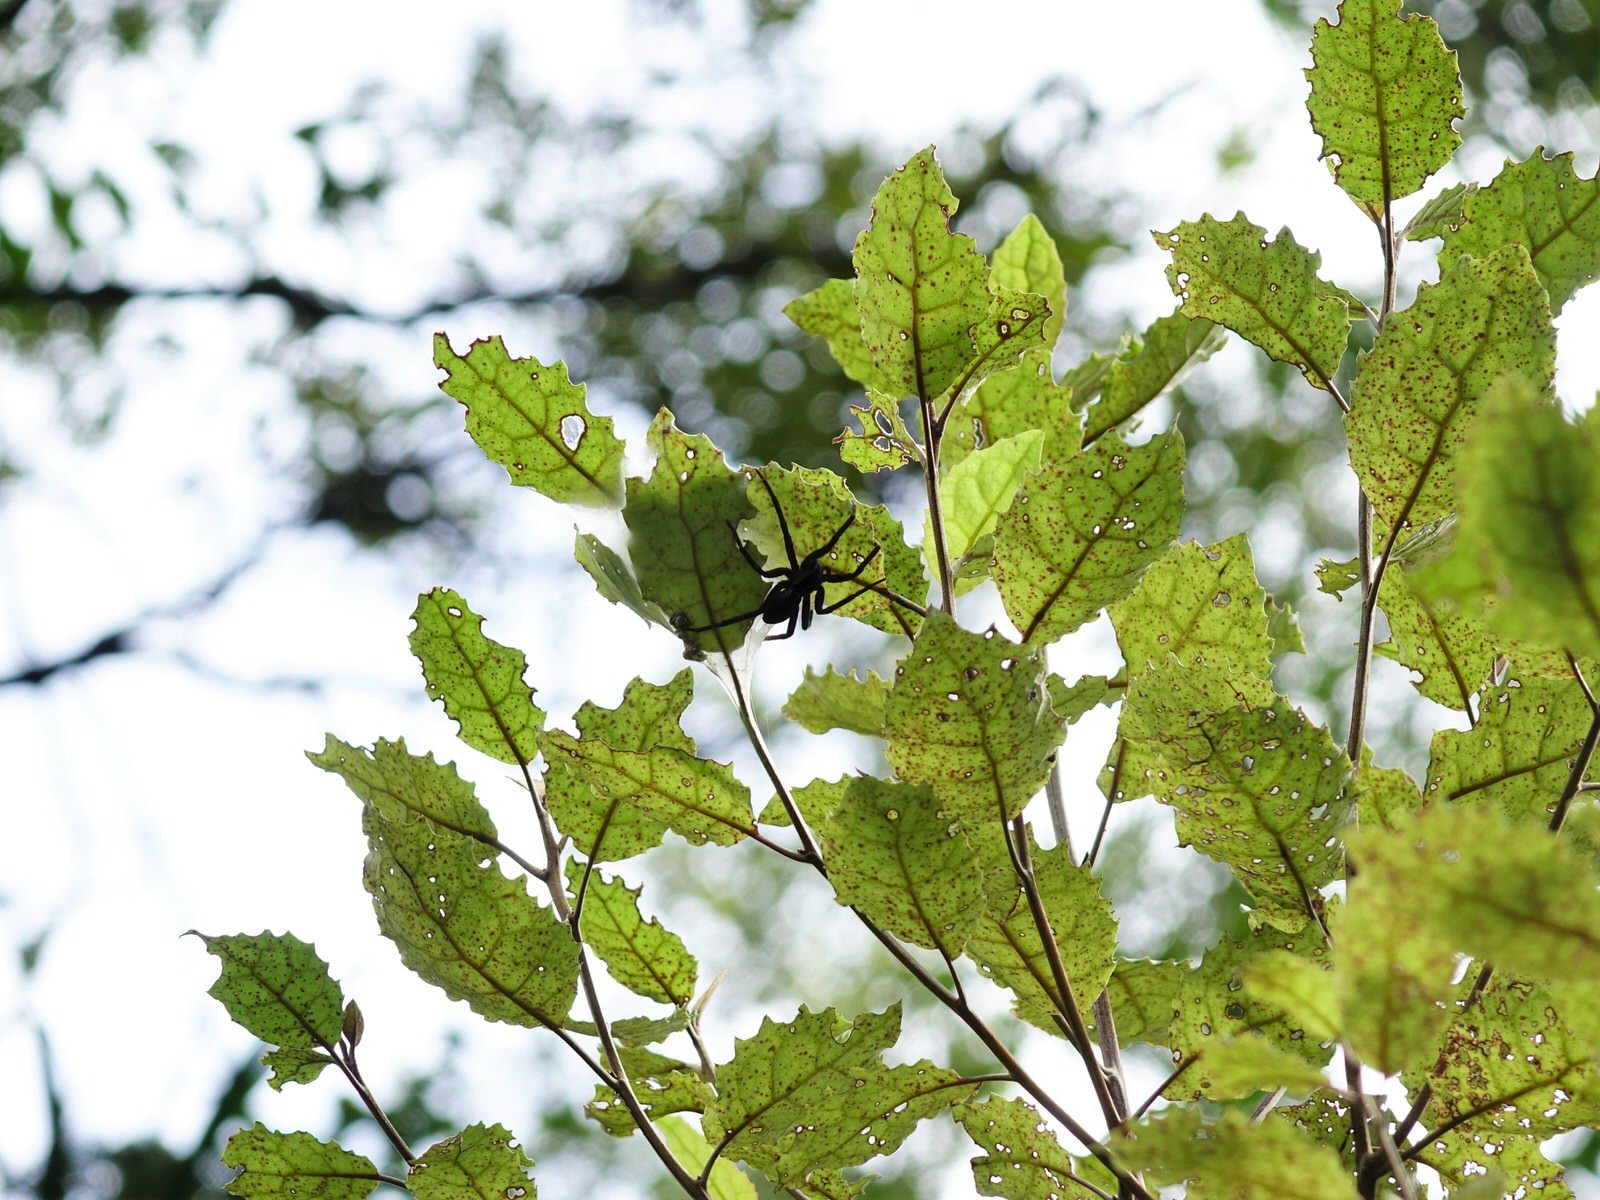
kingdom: Animalia
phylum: Arthropoda
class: Arachnida
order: Araneae
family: Pisauridae
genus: Dolomedes
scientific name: Dolomedes minor
